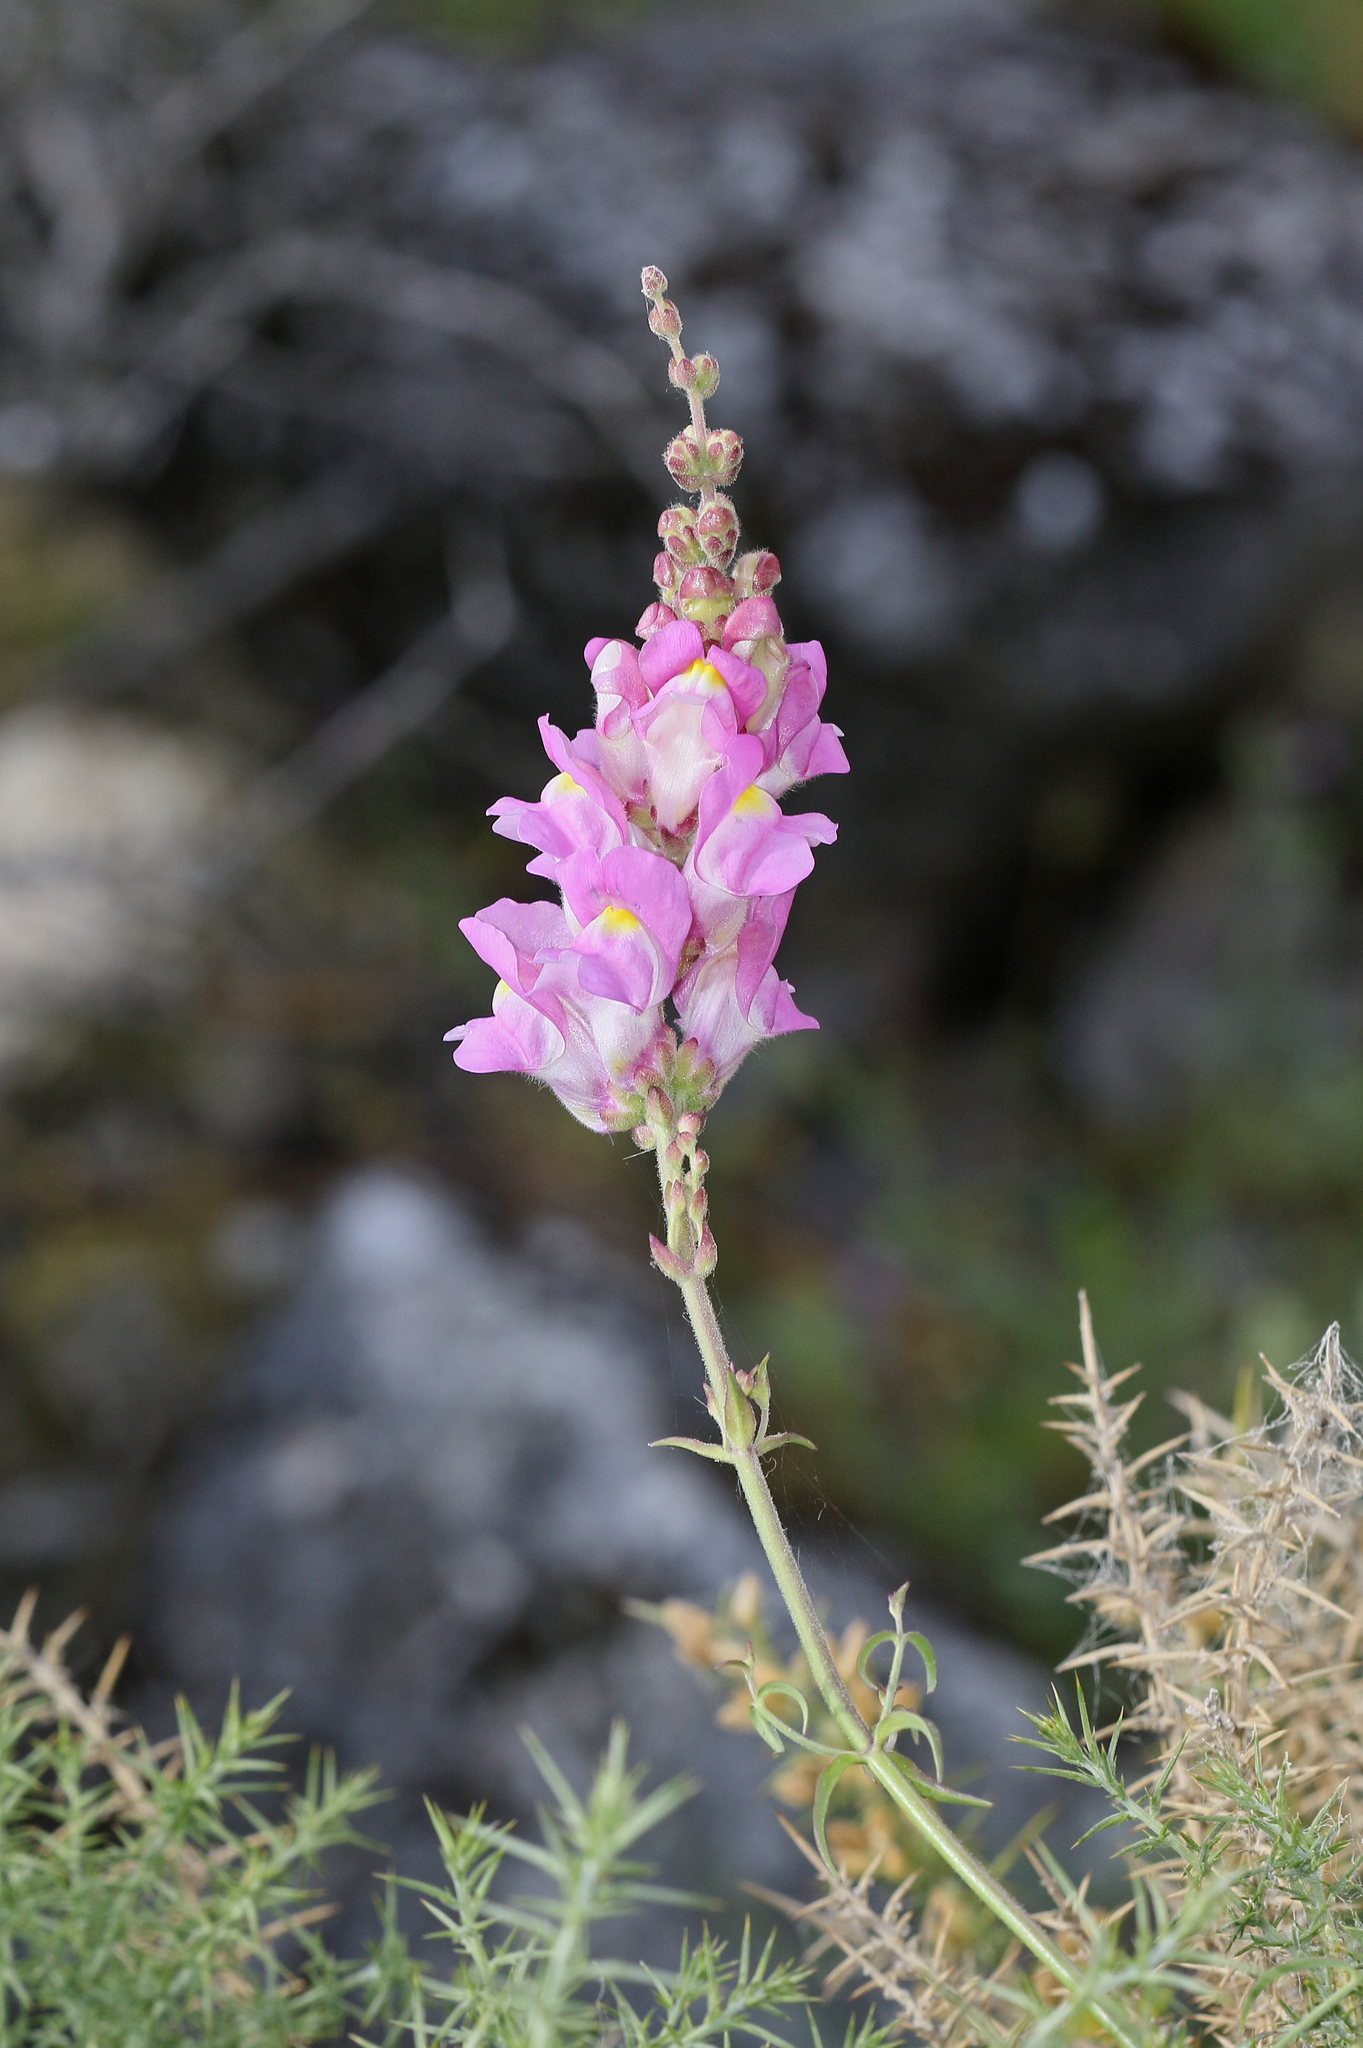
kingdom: Plantae
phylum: Tracheophyta
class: Magnoliopsida
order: Lamiales
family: Plantaginaceae
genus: Antirrhinum
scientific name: Antirrhinum australe
